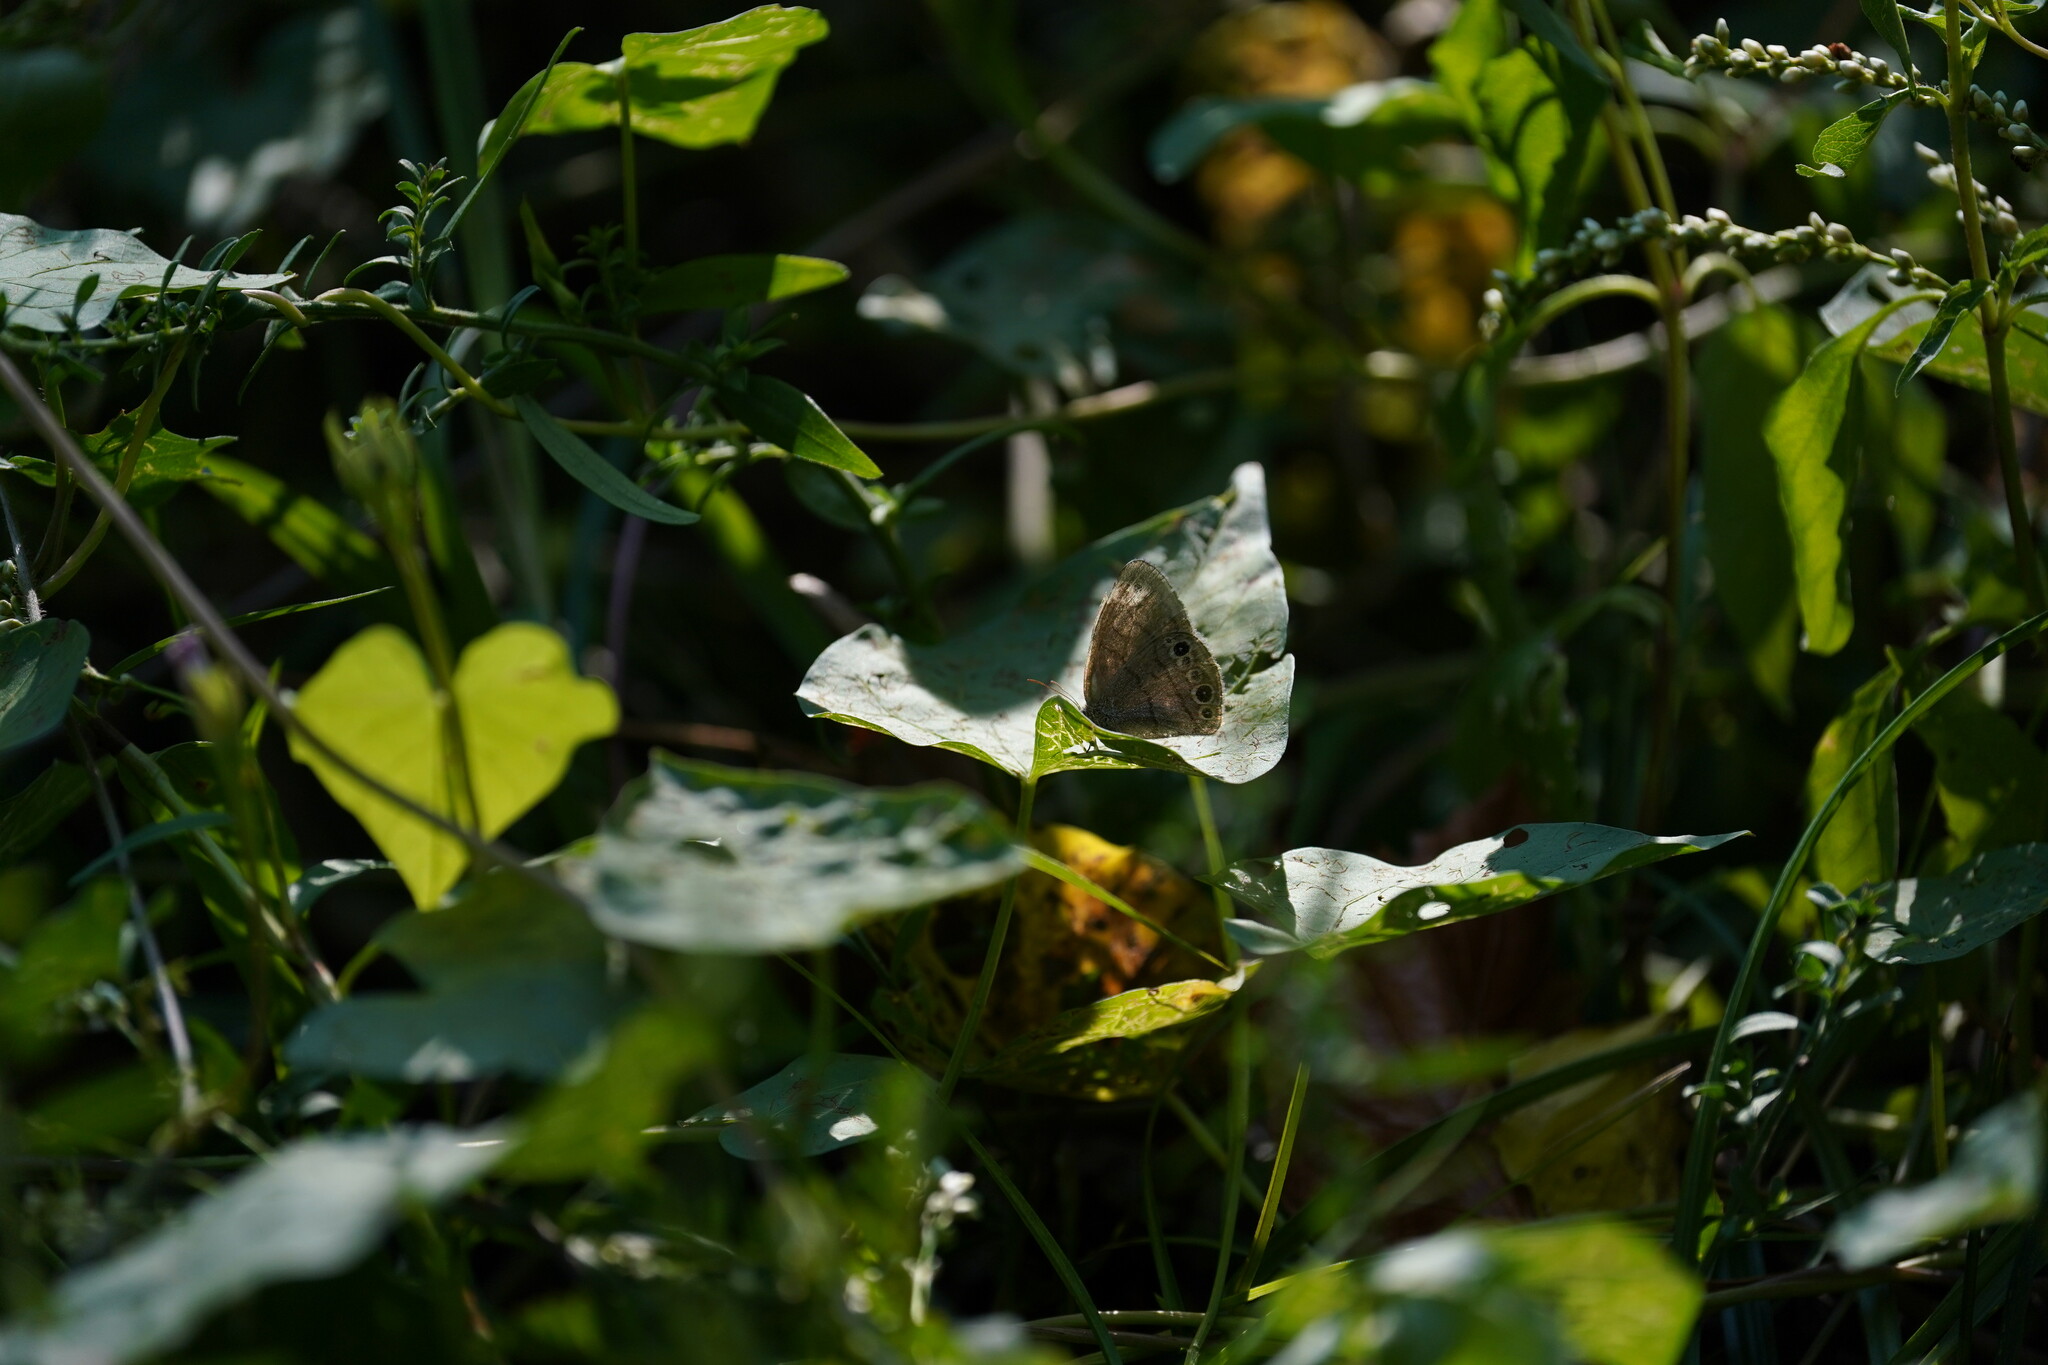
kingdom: Animalia
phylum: Arthropoda
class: Insecta
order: Lepidoptera
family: Nymphalidae
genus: Hermeuptychia
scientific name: Hermeuptychia hermes
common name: Hermes satyr
